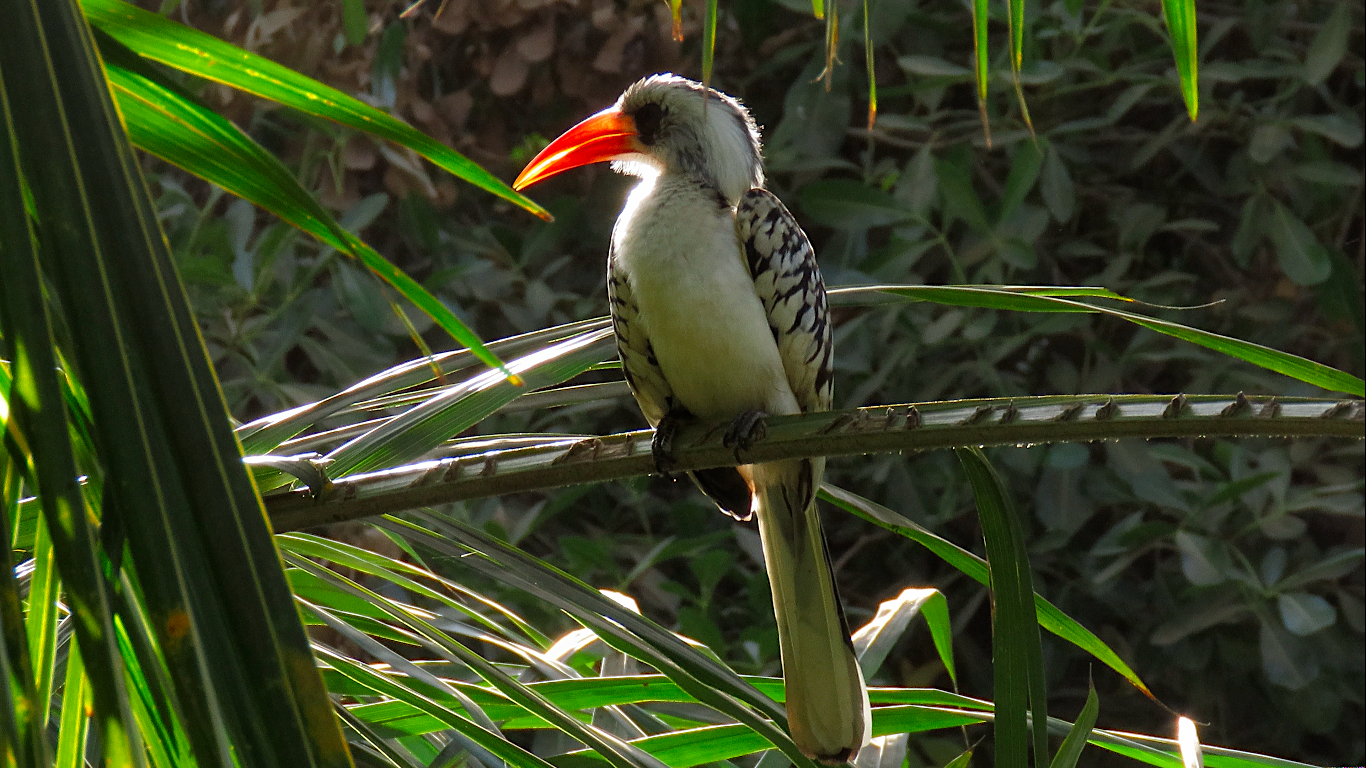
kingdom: Animalia
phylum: Chordata
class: Aves
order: Bucerotiformes
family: Bucerotidae
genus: Tockus
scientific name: Tockus kempi
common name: Western red-billed hornbill
